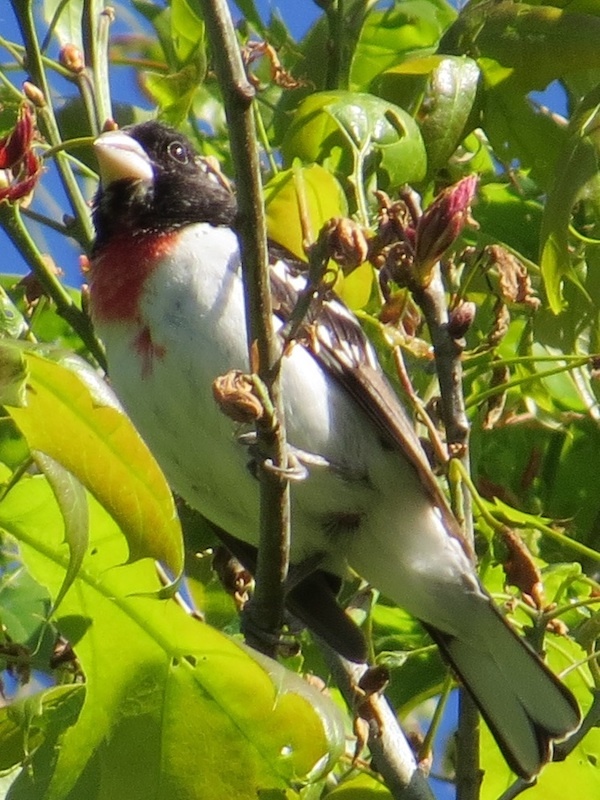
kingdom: Animalia
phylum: Chordata
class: Aves
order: Passeriformes
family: Cardinalidae
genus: Pheucticus
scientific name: Pheucticus ludovicianus
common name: Rose-breasted grosbeak
